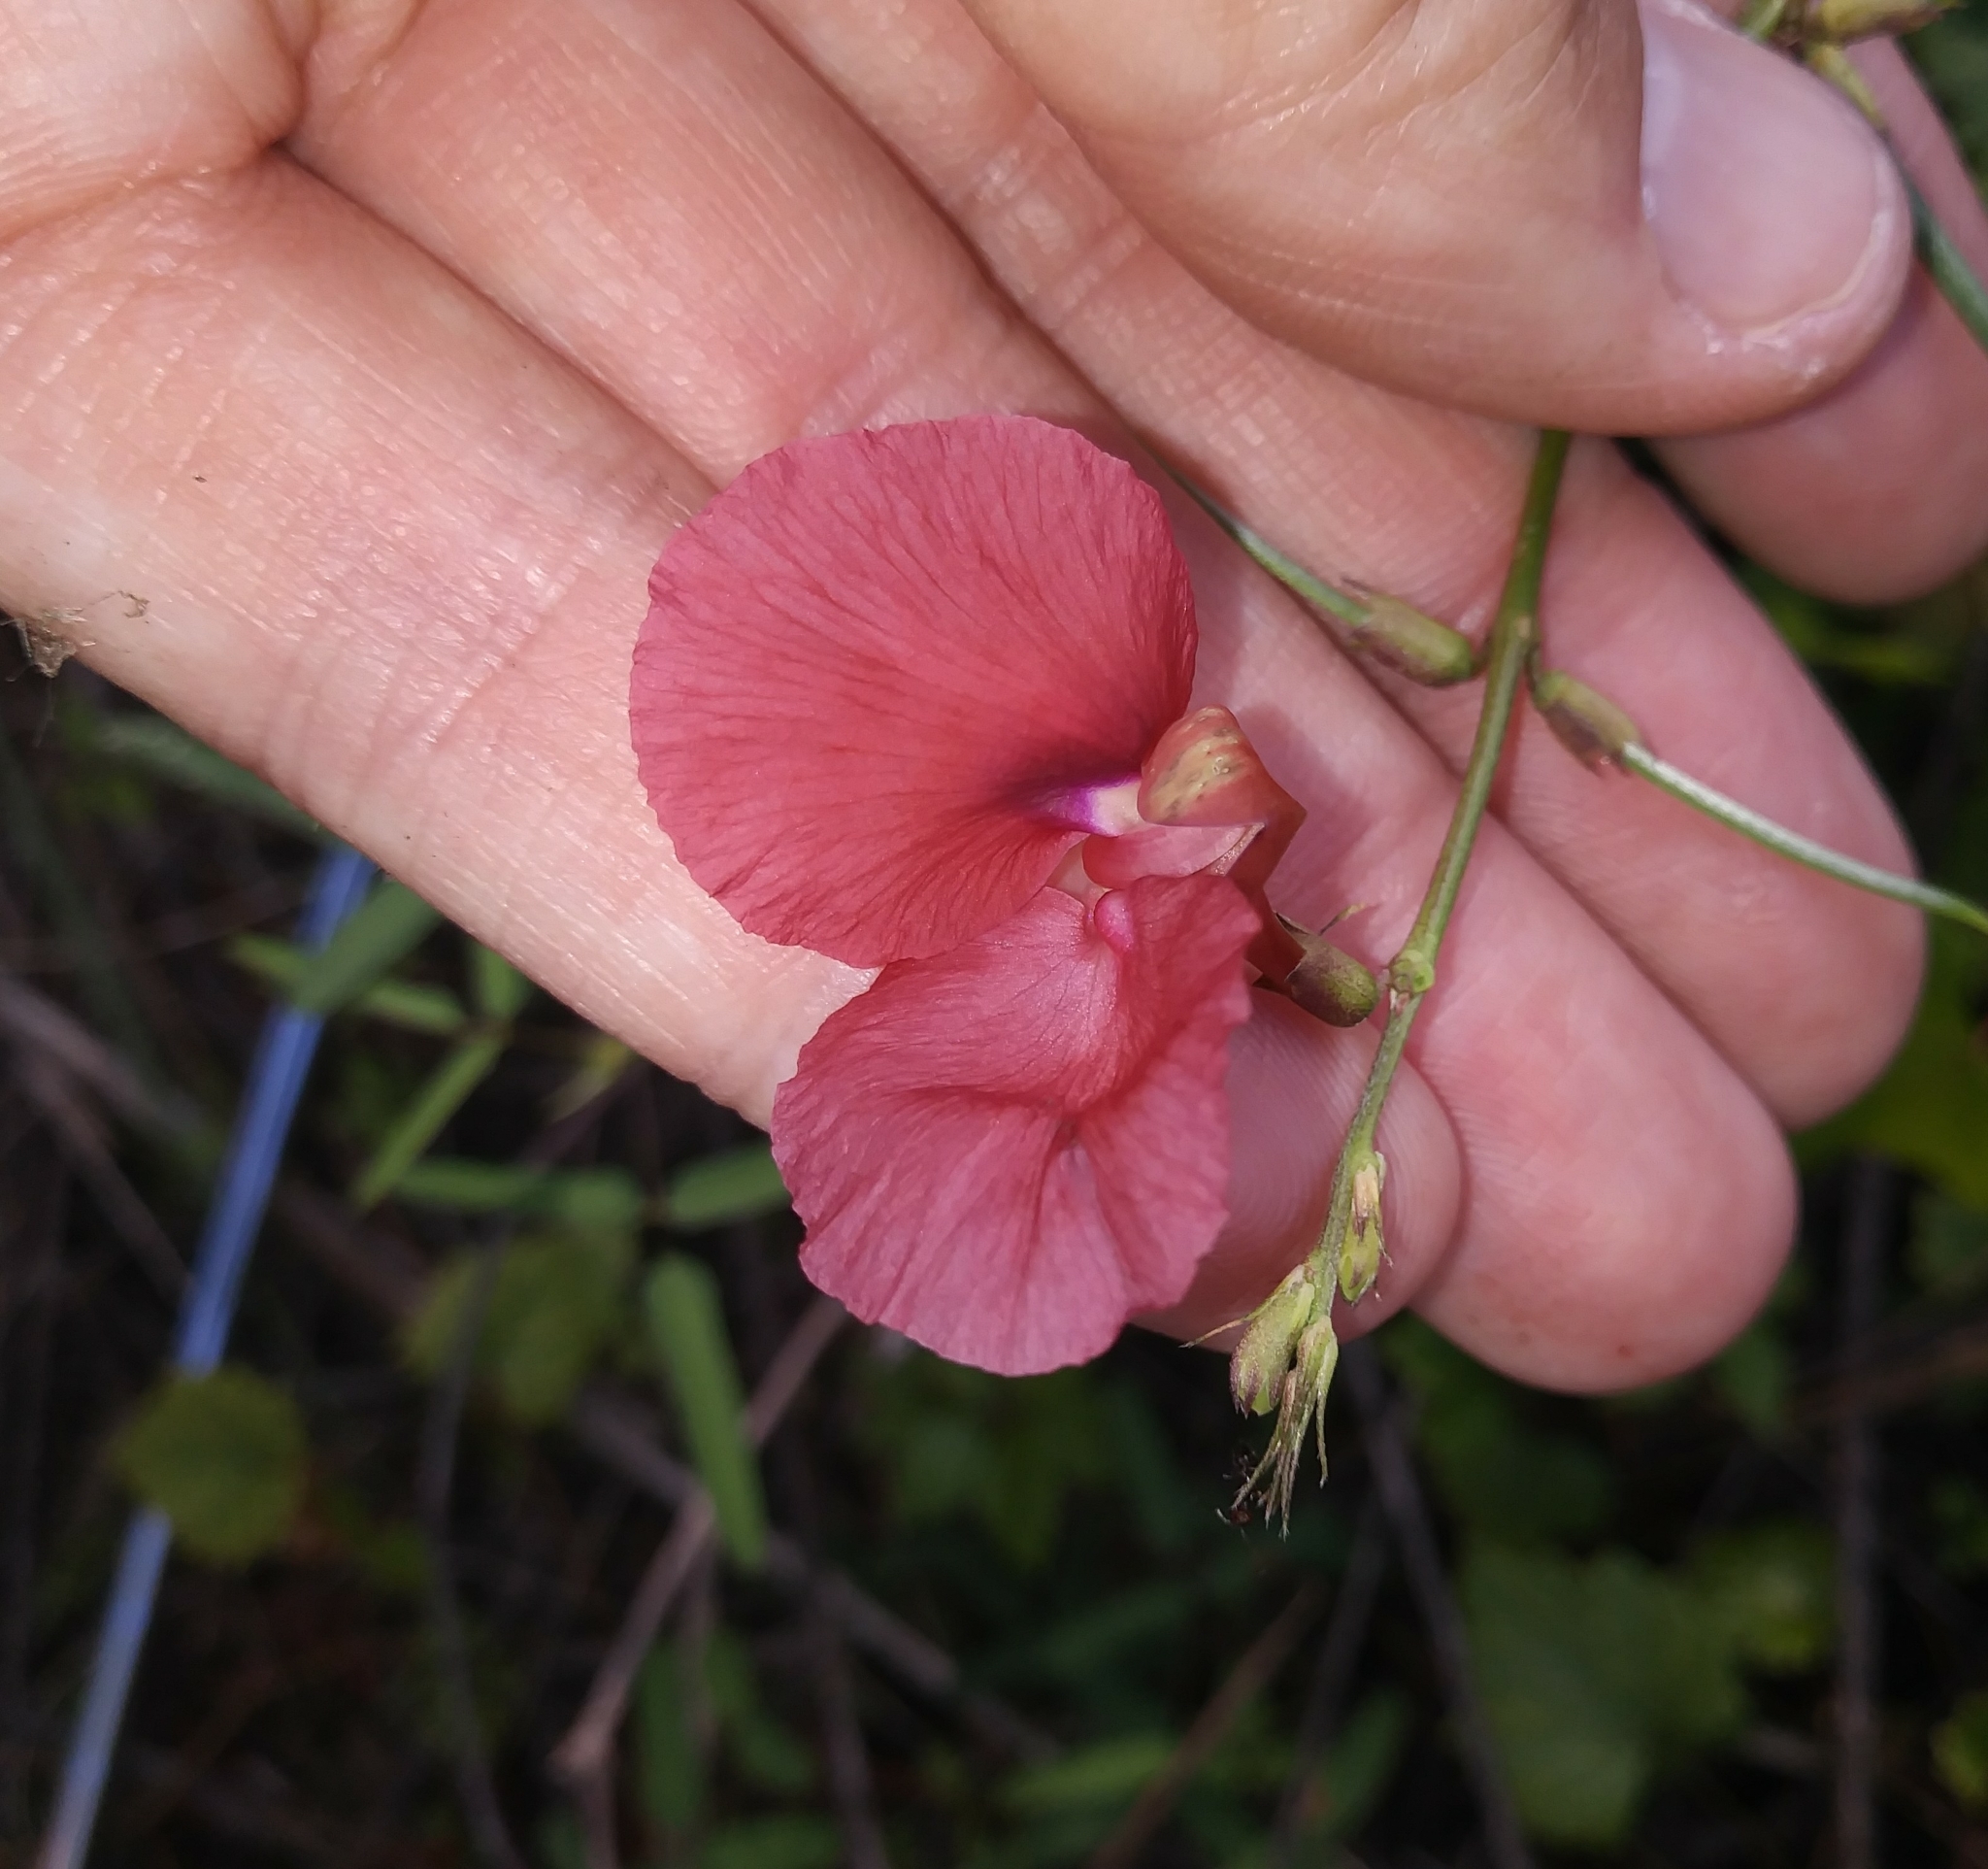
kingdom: Plantae
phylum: Tracheophyta
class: Magnoliopsida
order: Fabales
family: Fabaceae
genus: Macroptilium
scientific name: Macroptilium lathyroides
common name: Wild bushbean
